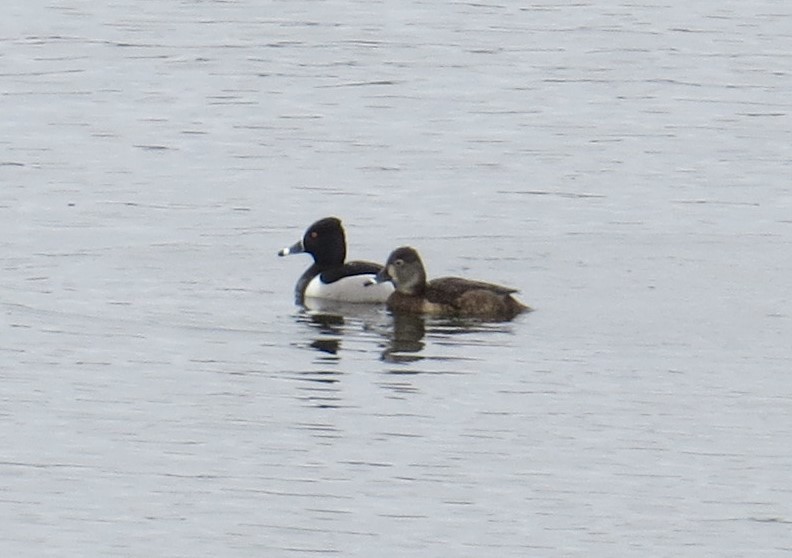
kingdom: Animalia
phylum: Chordata
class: Aves
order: Anseriformes
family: Anatidae
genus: Aythya
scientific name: Aythya collaris
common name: Ring-necked duck
